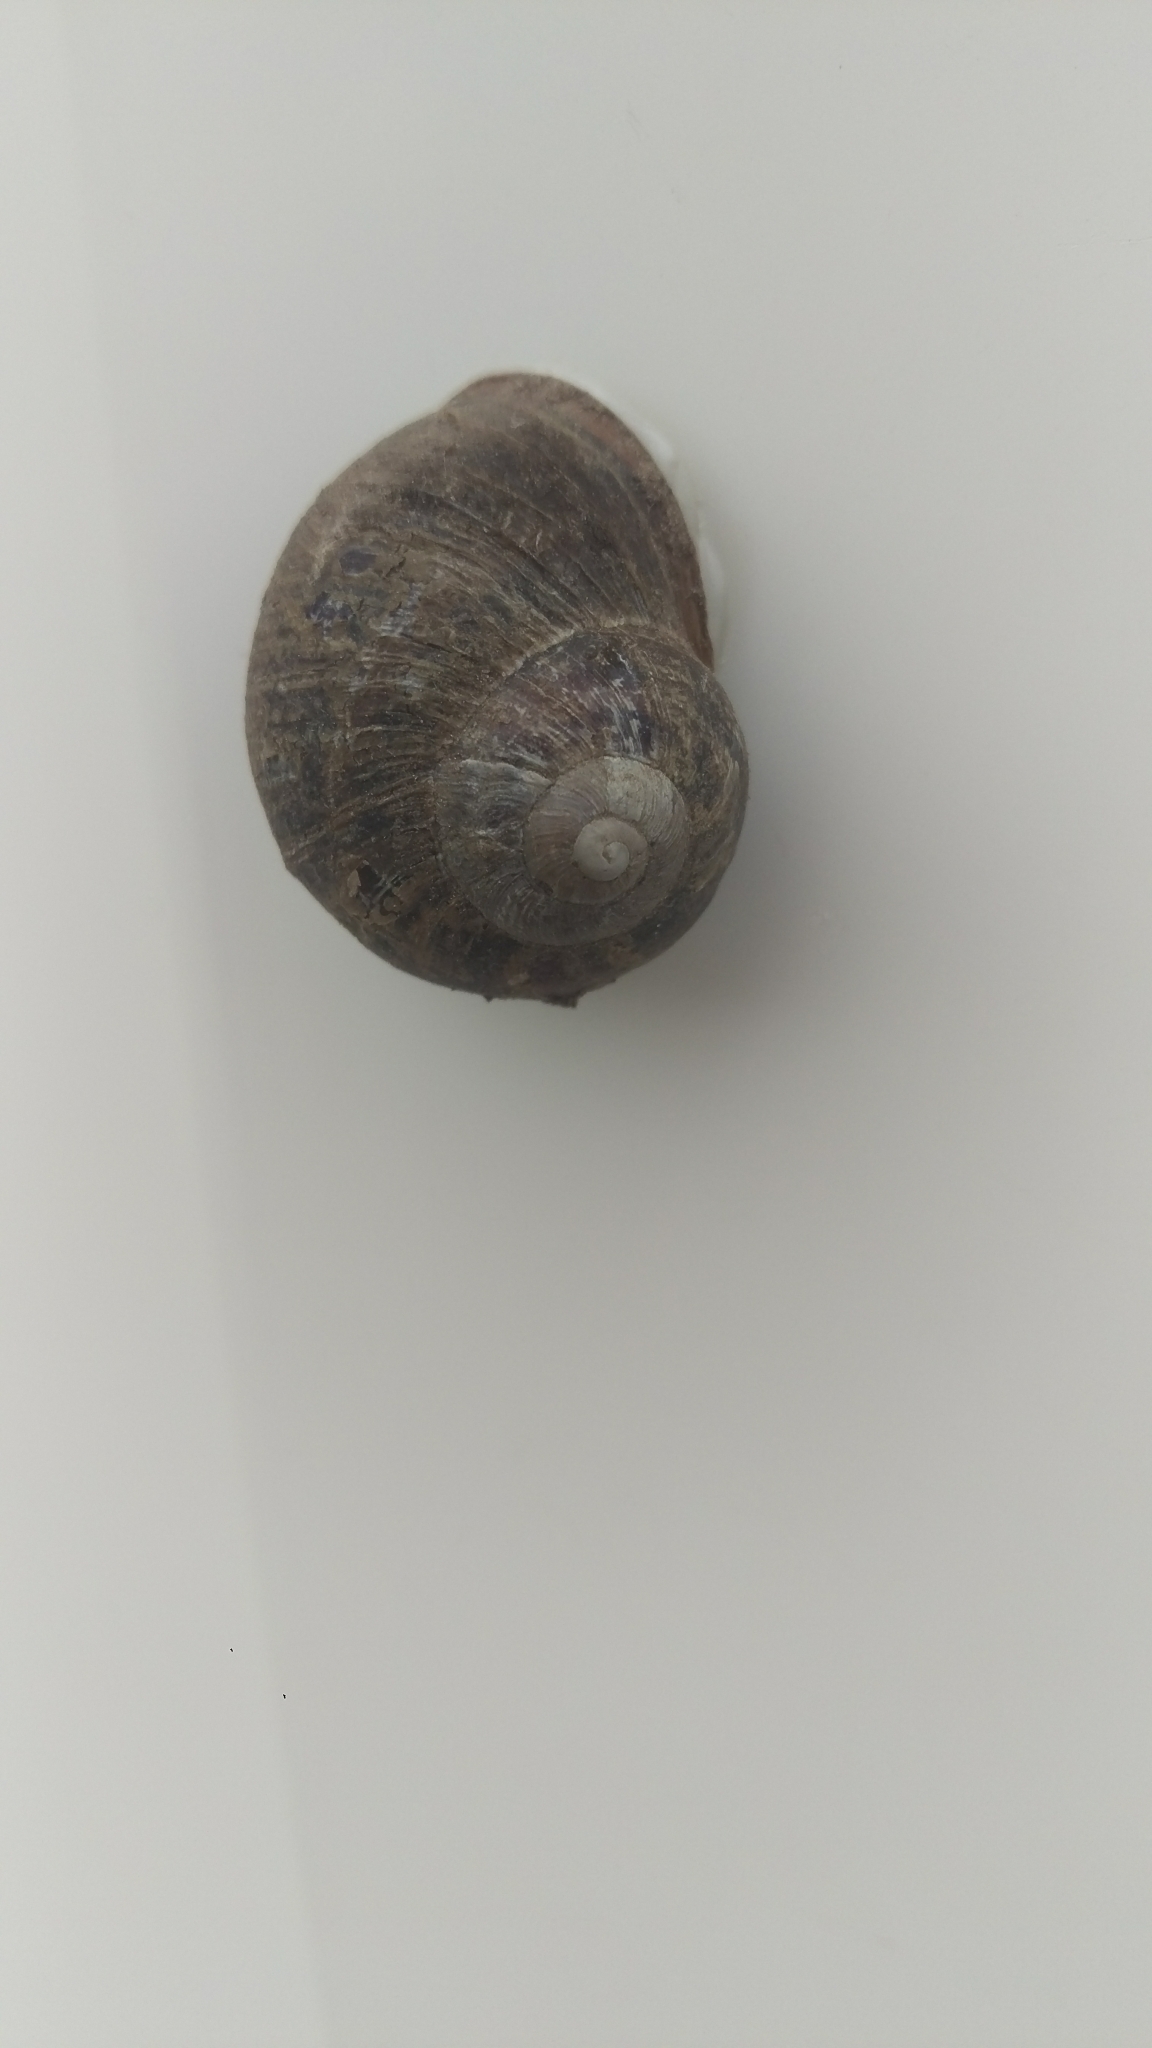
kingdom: Animalia
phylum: Mollusca
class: Gastropoda
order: Stylommatophora
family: Helicidae
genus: Cornu
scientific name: Cornu aspersum
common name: Brown garden snail
